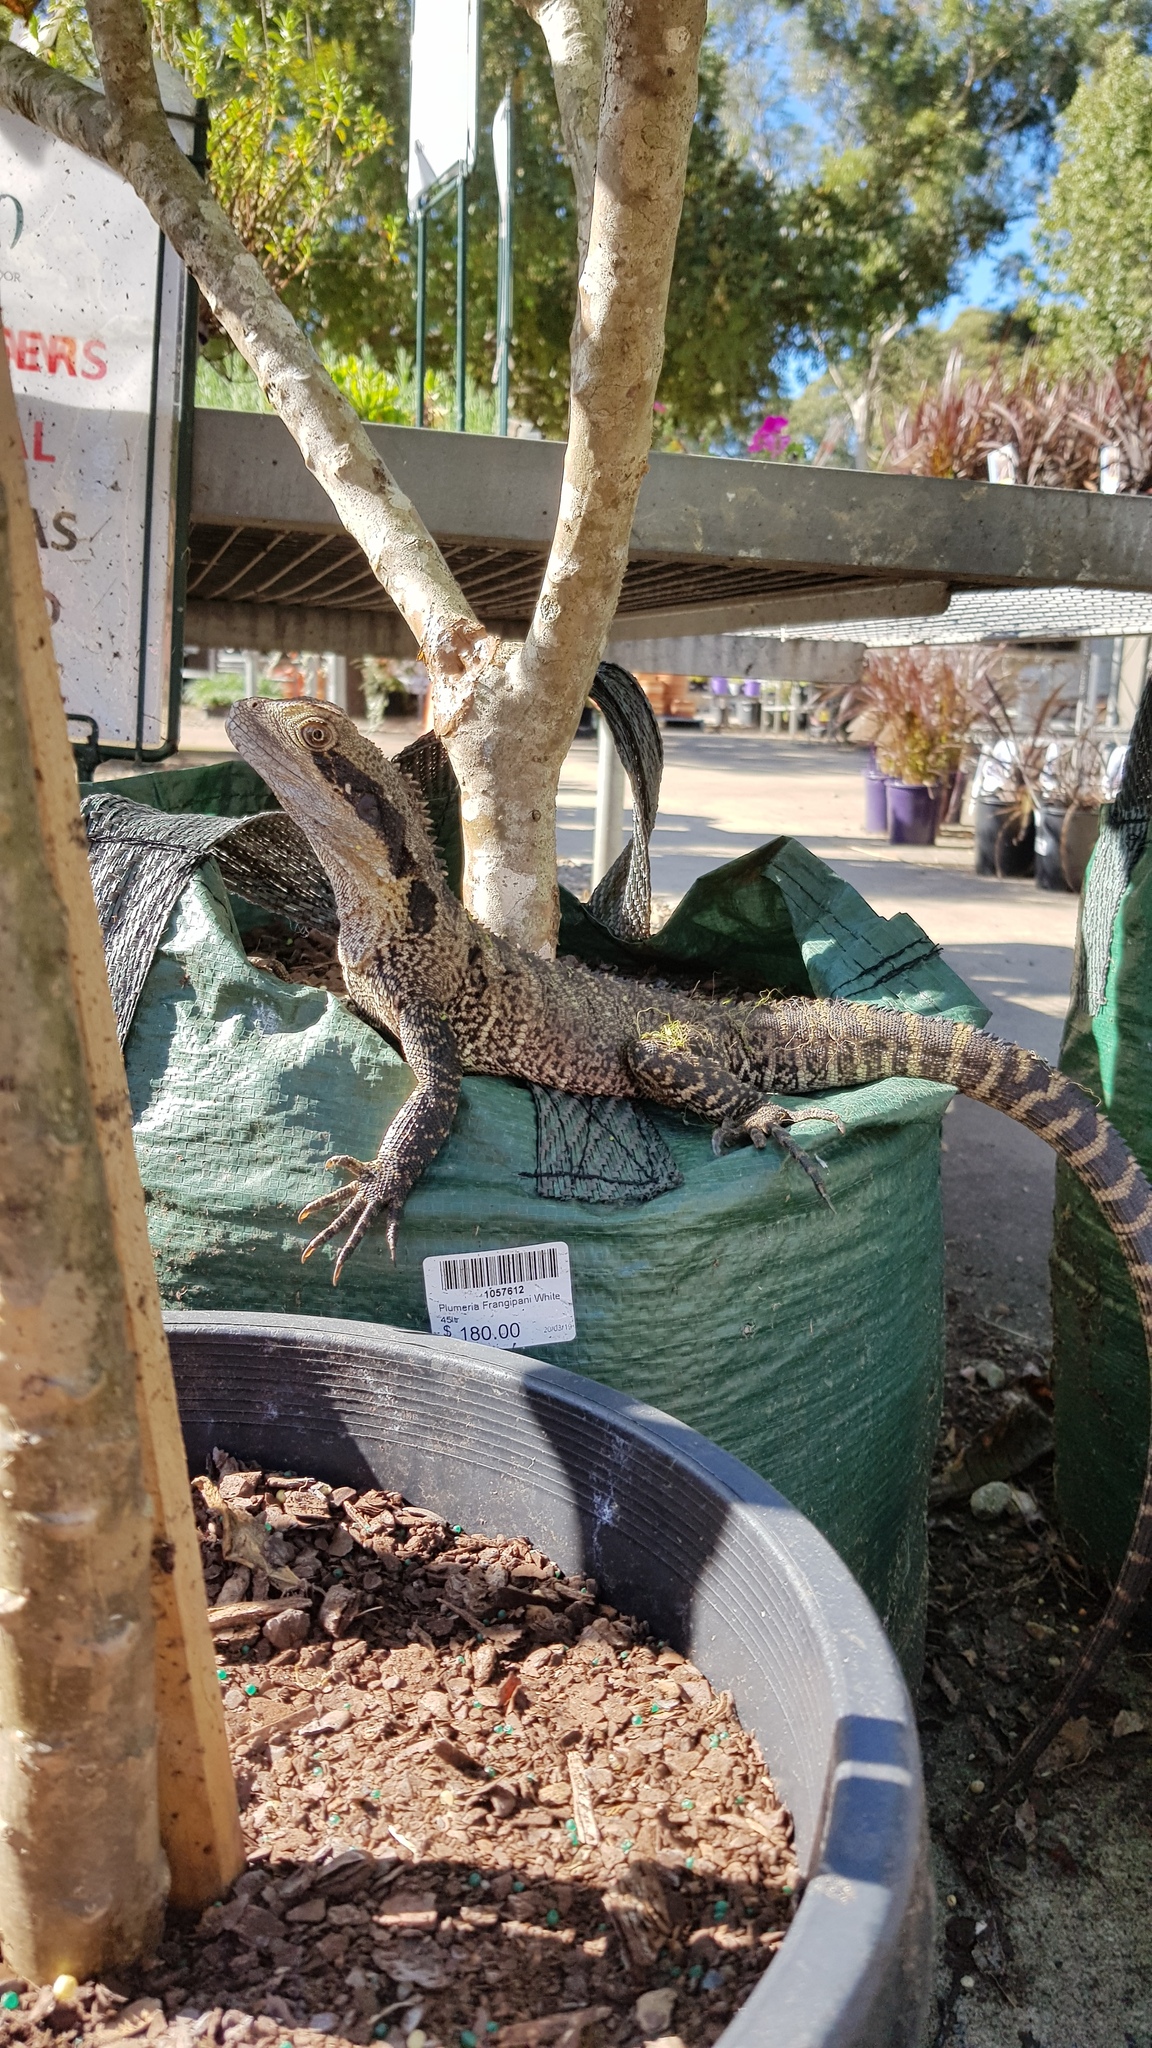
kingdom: Animalia
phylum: Chordata
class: Squamata
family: Agamidae
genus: Intellagama
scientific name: Intellagama lesueurii
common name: Eastern water dragon
